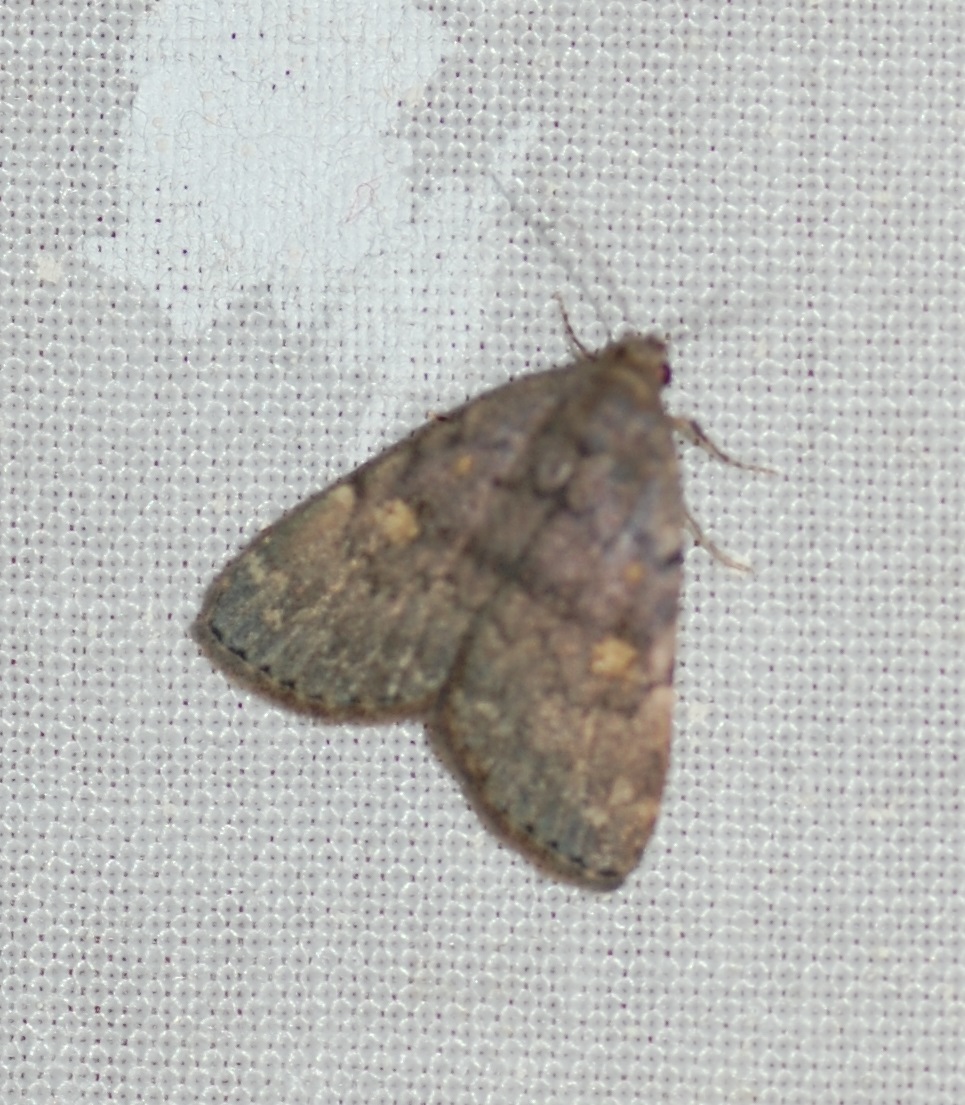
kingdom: Animalia
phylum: Arthropoda
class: Insecta
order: Lepidoptera
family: Erebidae
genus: Idia
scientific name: Idia aemula
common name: Common idia moth
